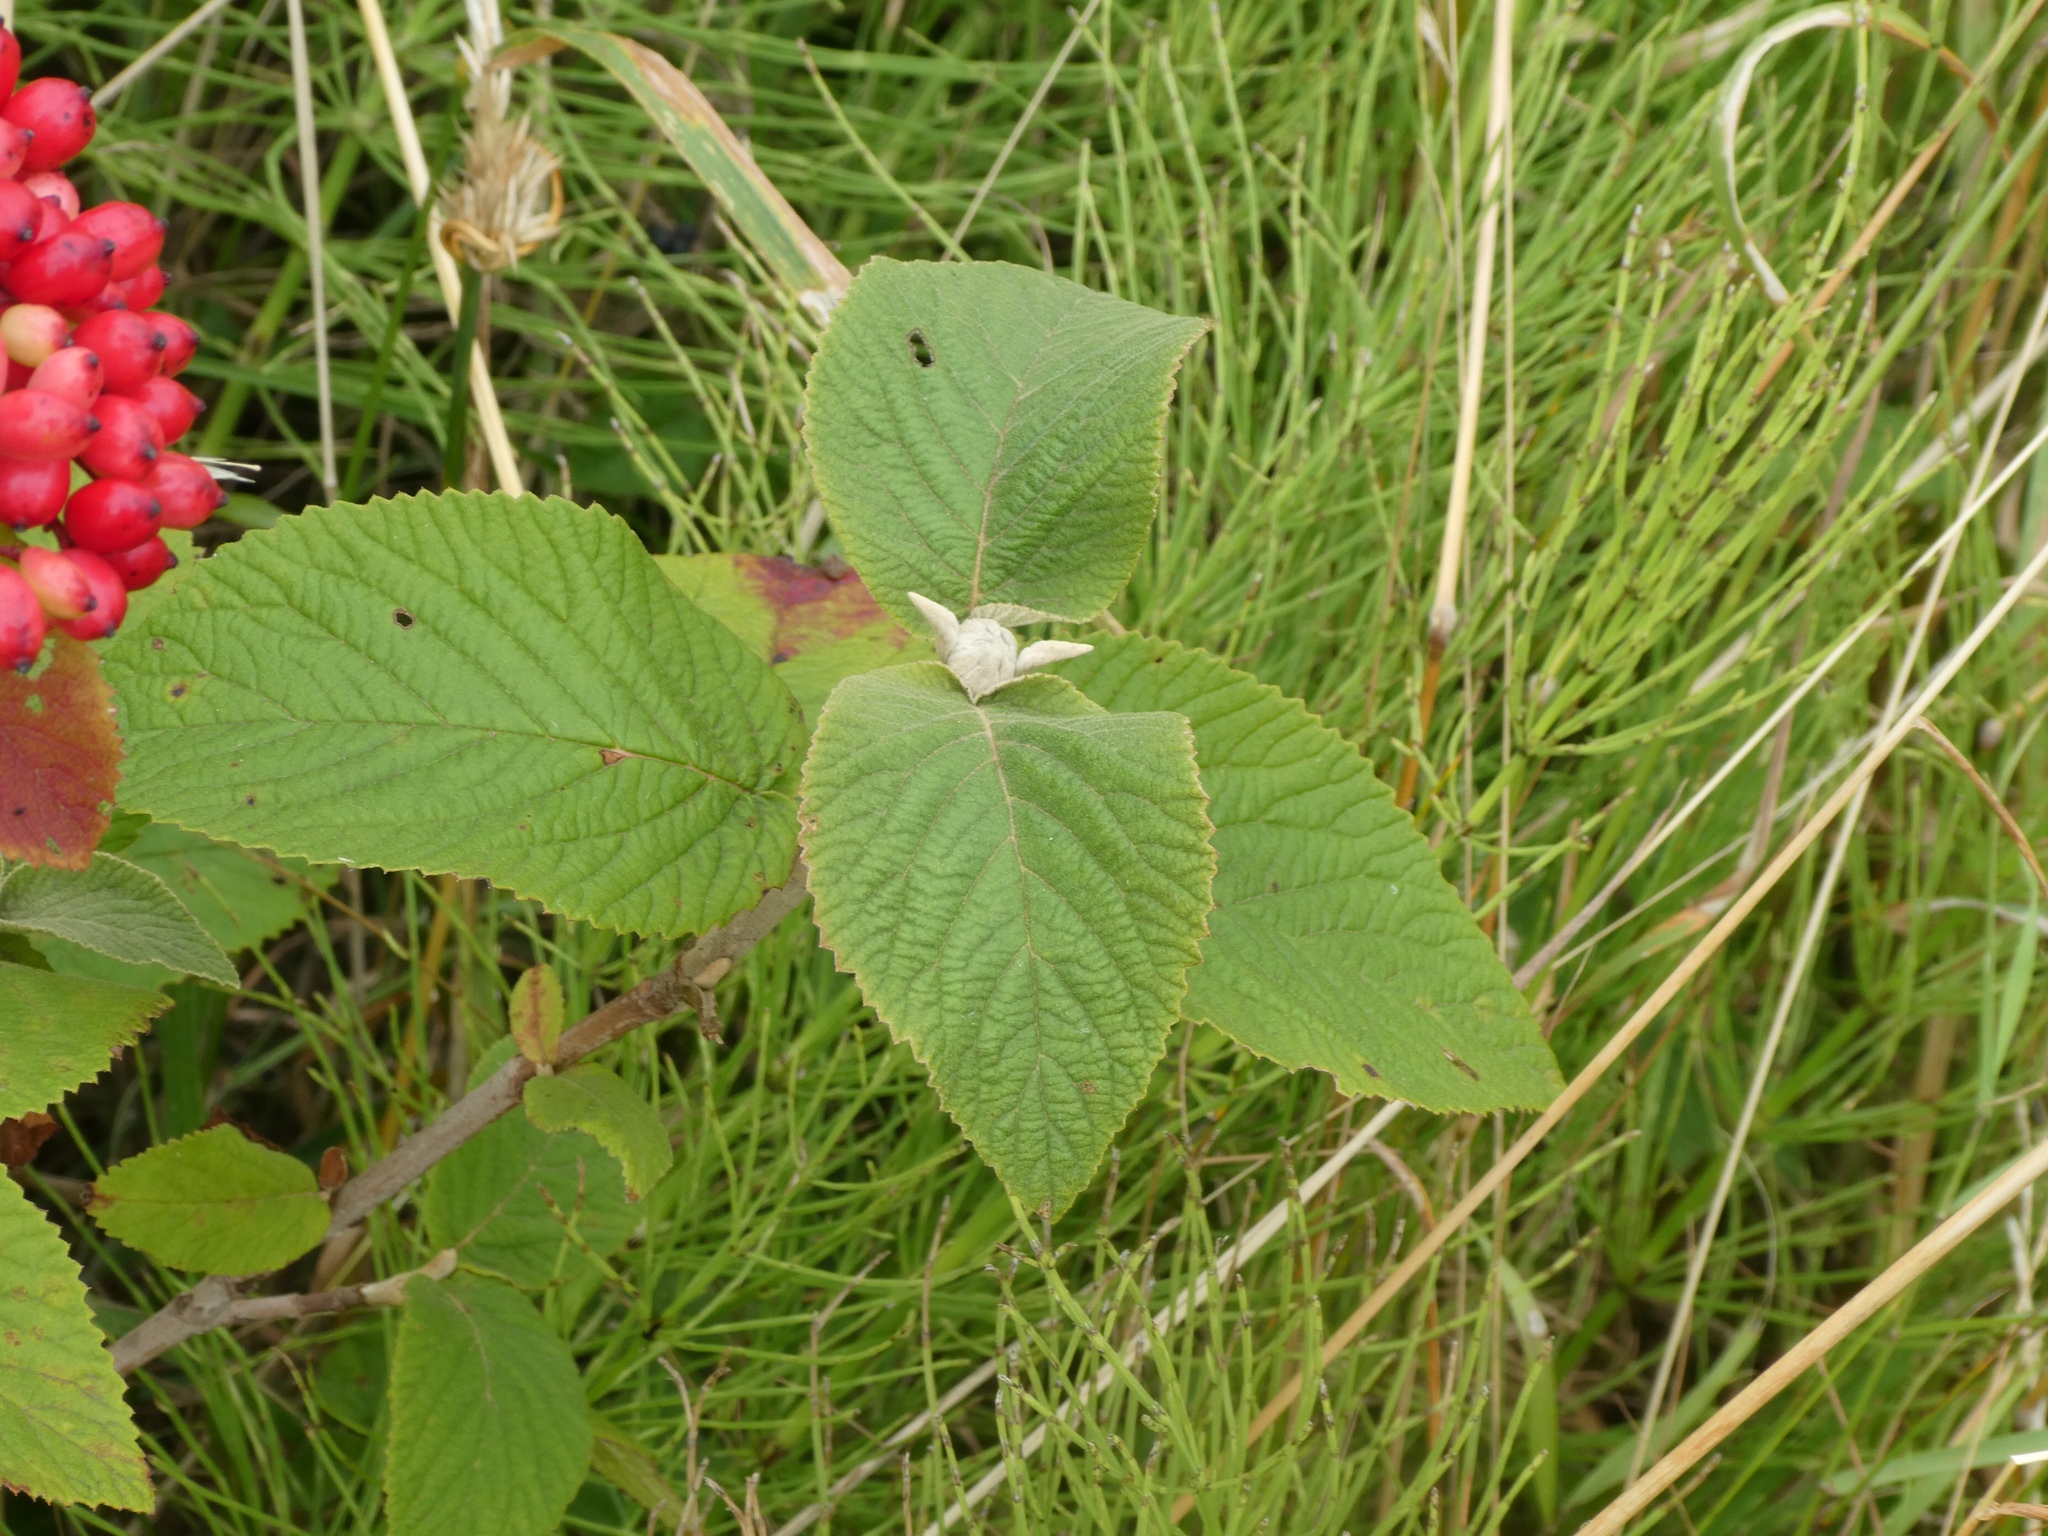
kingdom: Plantae
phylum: Tracheophyta
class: Magnoliopsida
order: Dipsacales
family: Viburnaceae
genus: Viburnum
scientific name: Viburnum lantana
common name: Wayfaring tree
